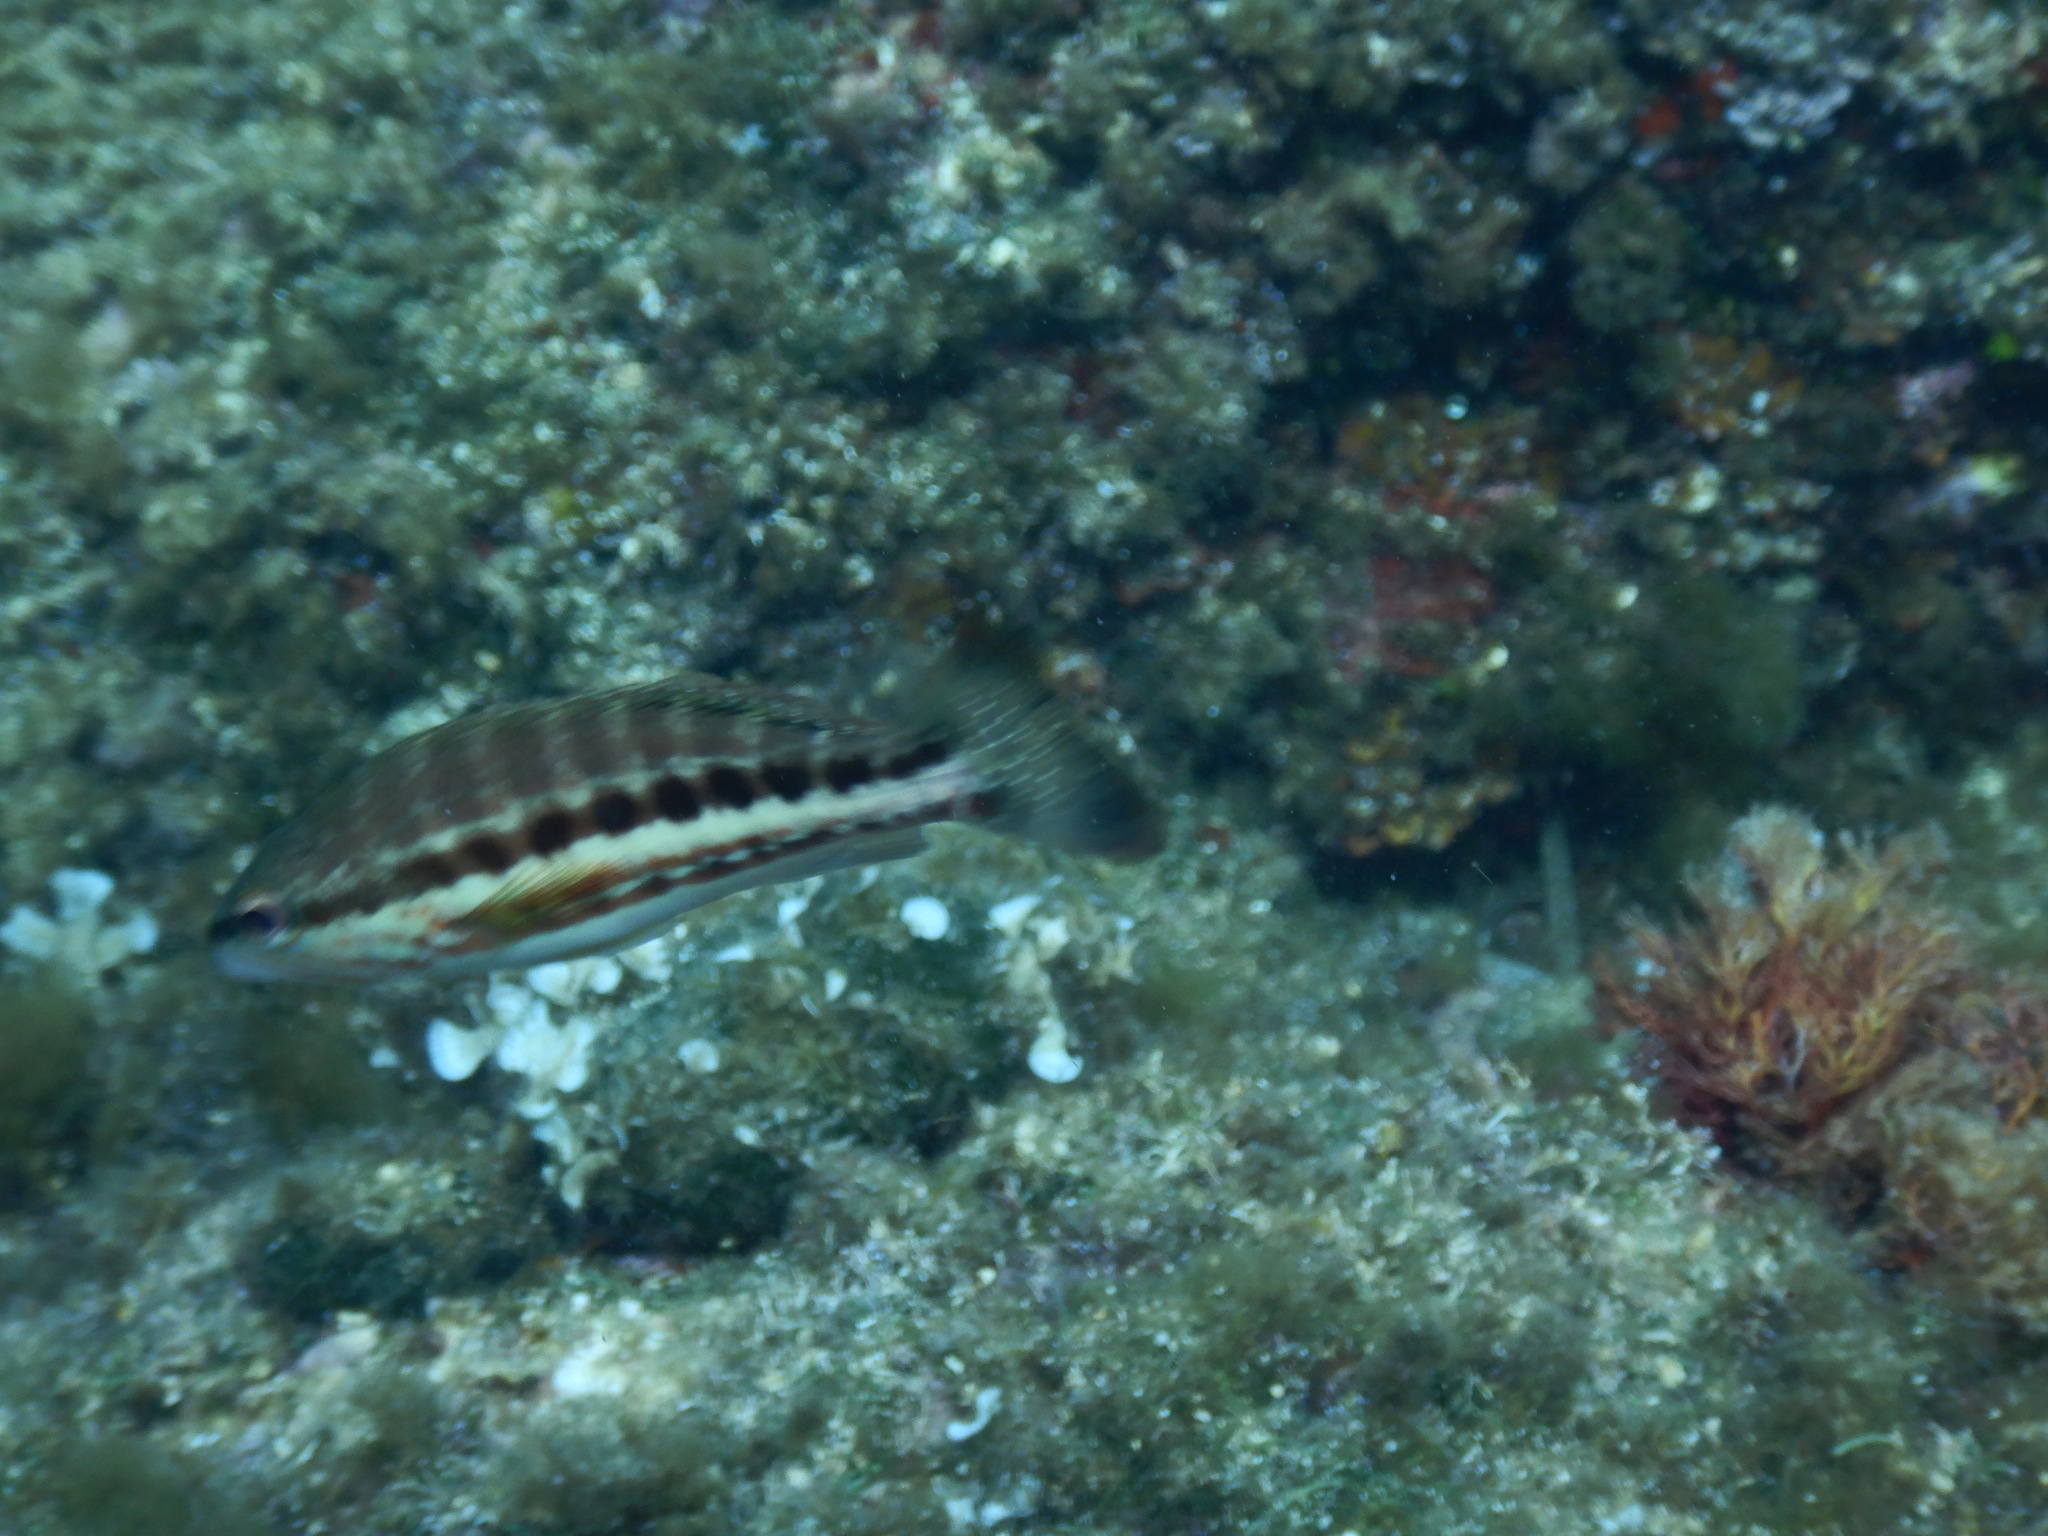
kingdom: Animalia
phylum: Chordata
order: Perciformes
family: Serranidae
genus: Serranus
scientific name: Serranus cabrilla
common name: Comber
